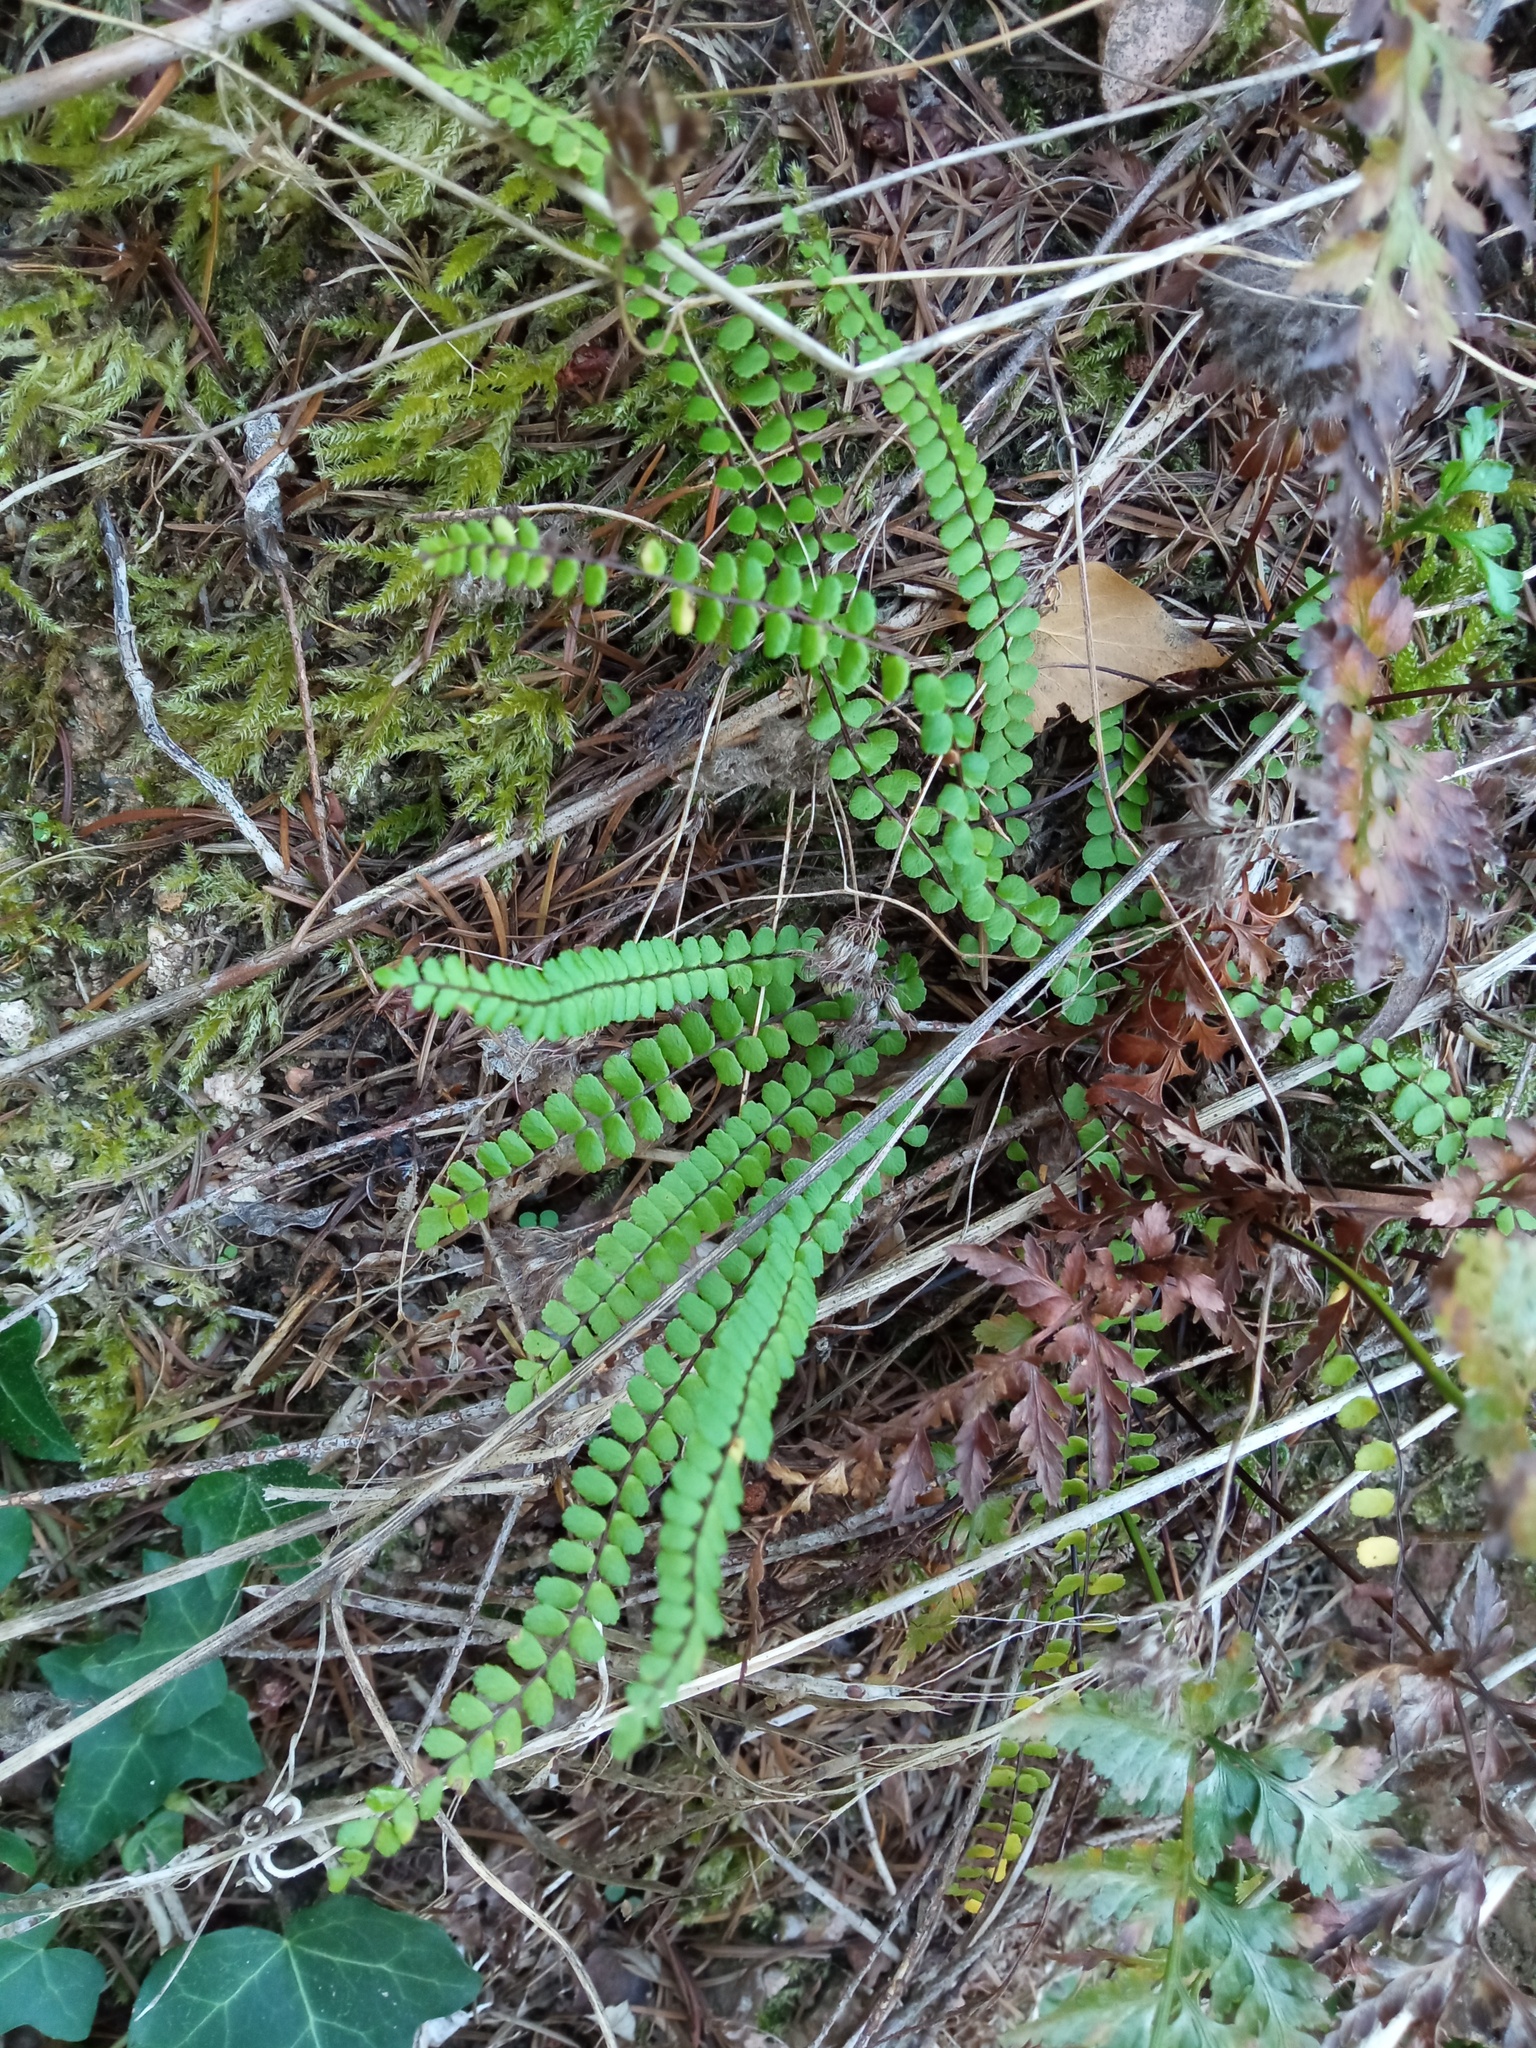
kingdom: Plantae
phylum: Tracheophyta
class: Polypodiopsida
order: Polypodiales
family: Aspleniaceae
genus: Asplenium
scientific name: Asplenium trichomanes
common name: Maidenhair spleenwort
